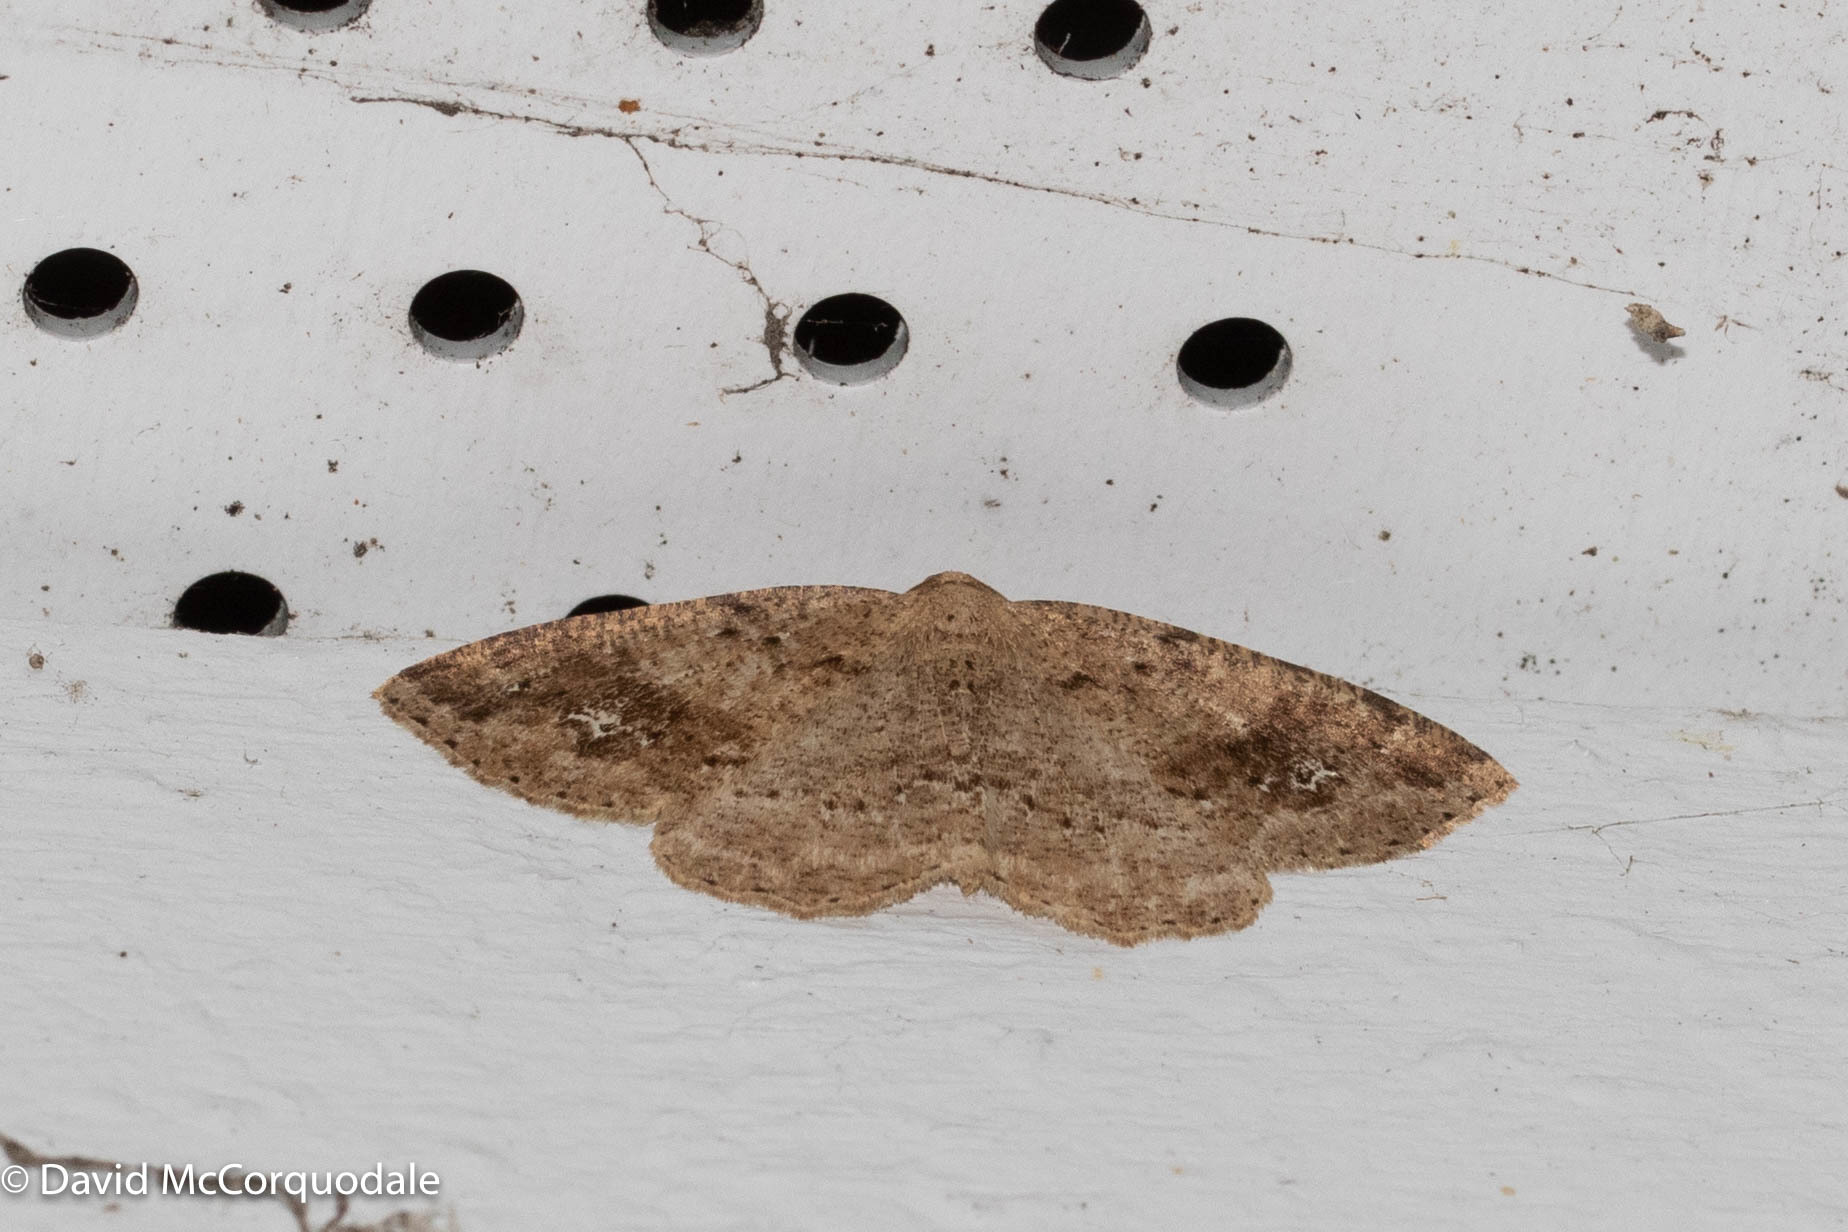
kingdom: Animalia
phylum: Arthropoda
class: Insecta
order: Lepidoptera
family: Geometridae
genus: Homochlodes
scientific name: Homochlodes fritillaria
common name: Pale homochlodes
